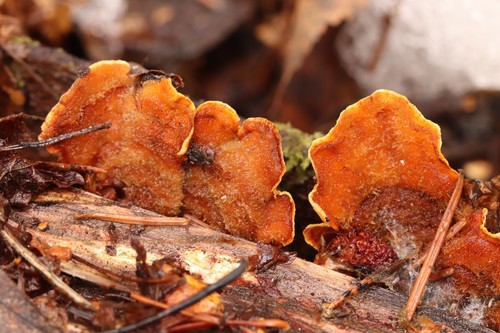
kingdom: Fungi
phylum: Basidiomycota
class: Agaricomycetes
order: Russulales
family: Stereaceae
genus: Stereum
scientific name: Stereum subtomentosum
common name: Yellowing curtain crust
